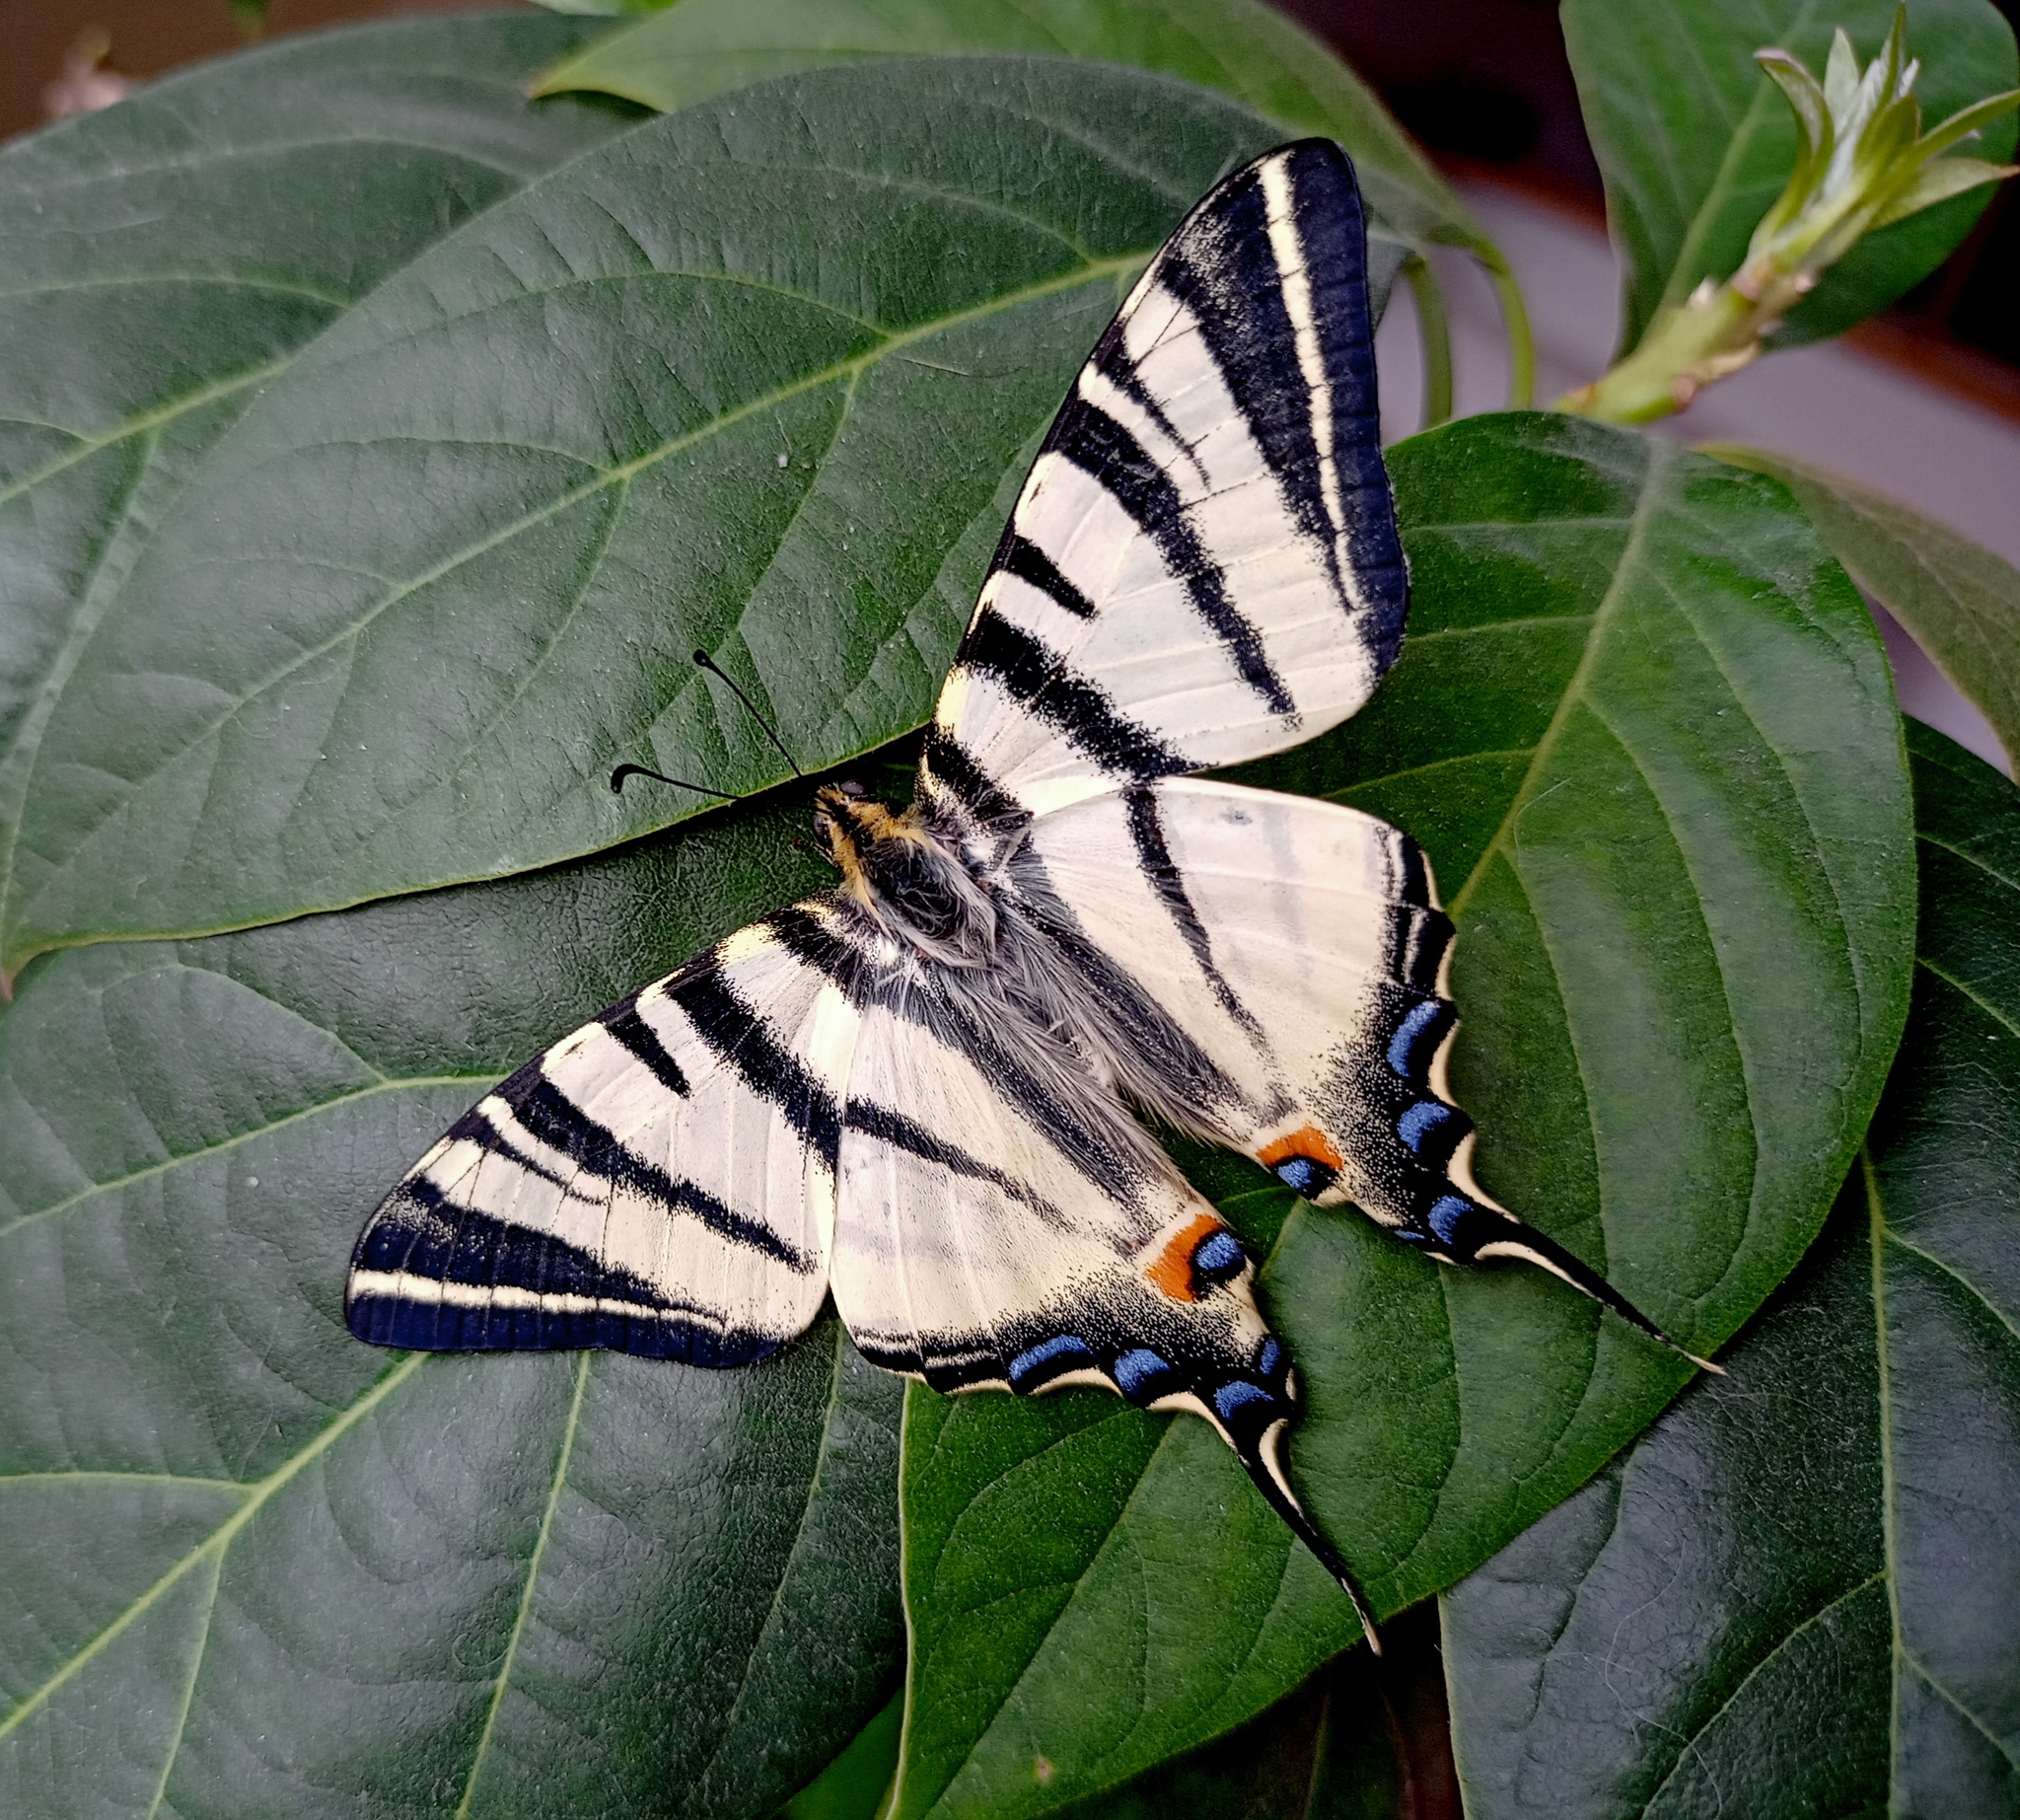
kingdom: Animalia
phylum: Arthropoda
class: Insecta
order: Lepidoptera
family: Papilionidae
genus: Iphiclides
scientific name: Iphiclides podalirius
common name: Scarce swallowtail
